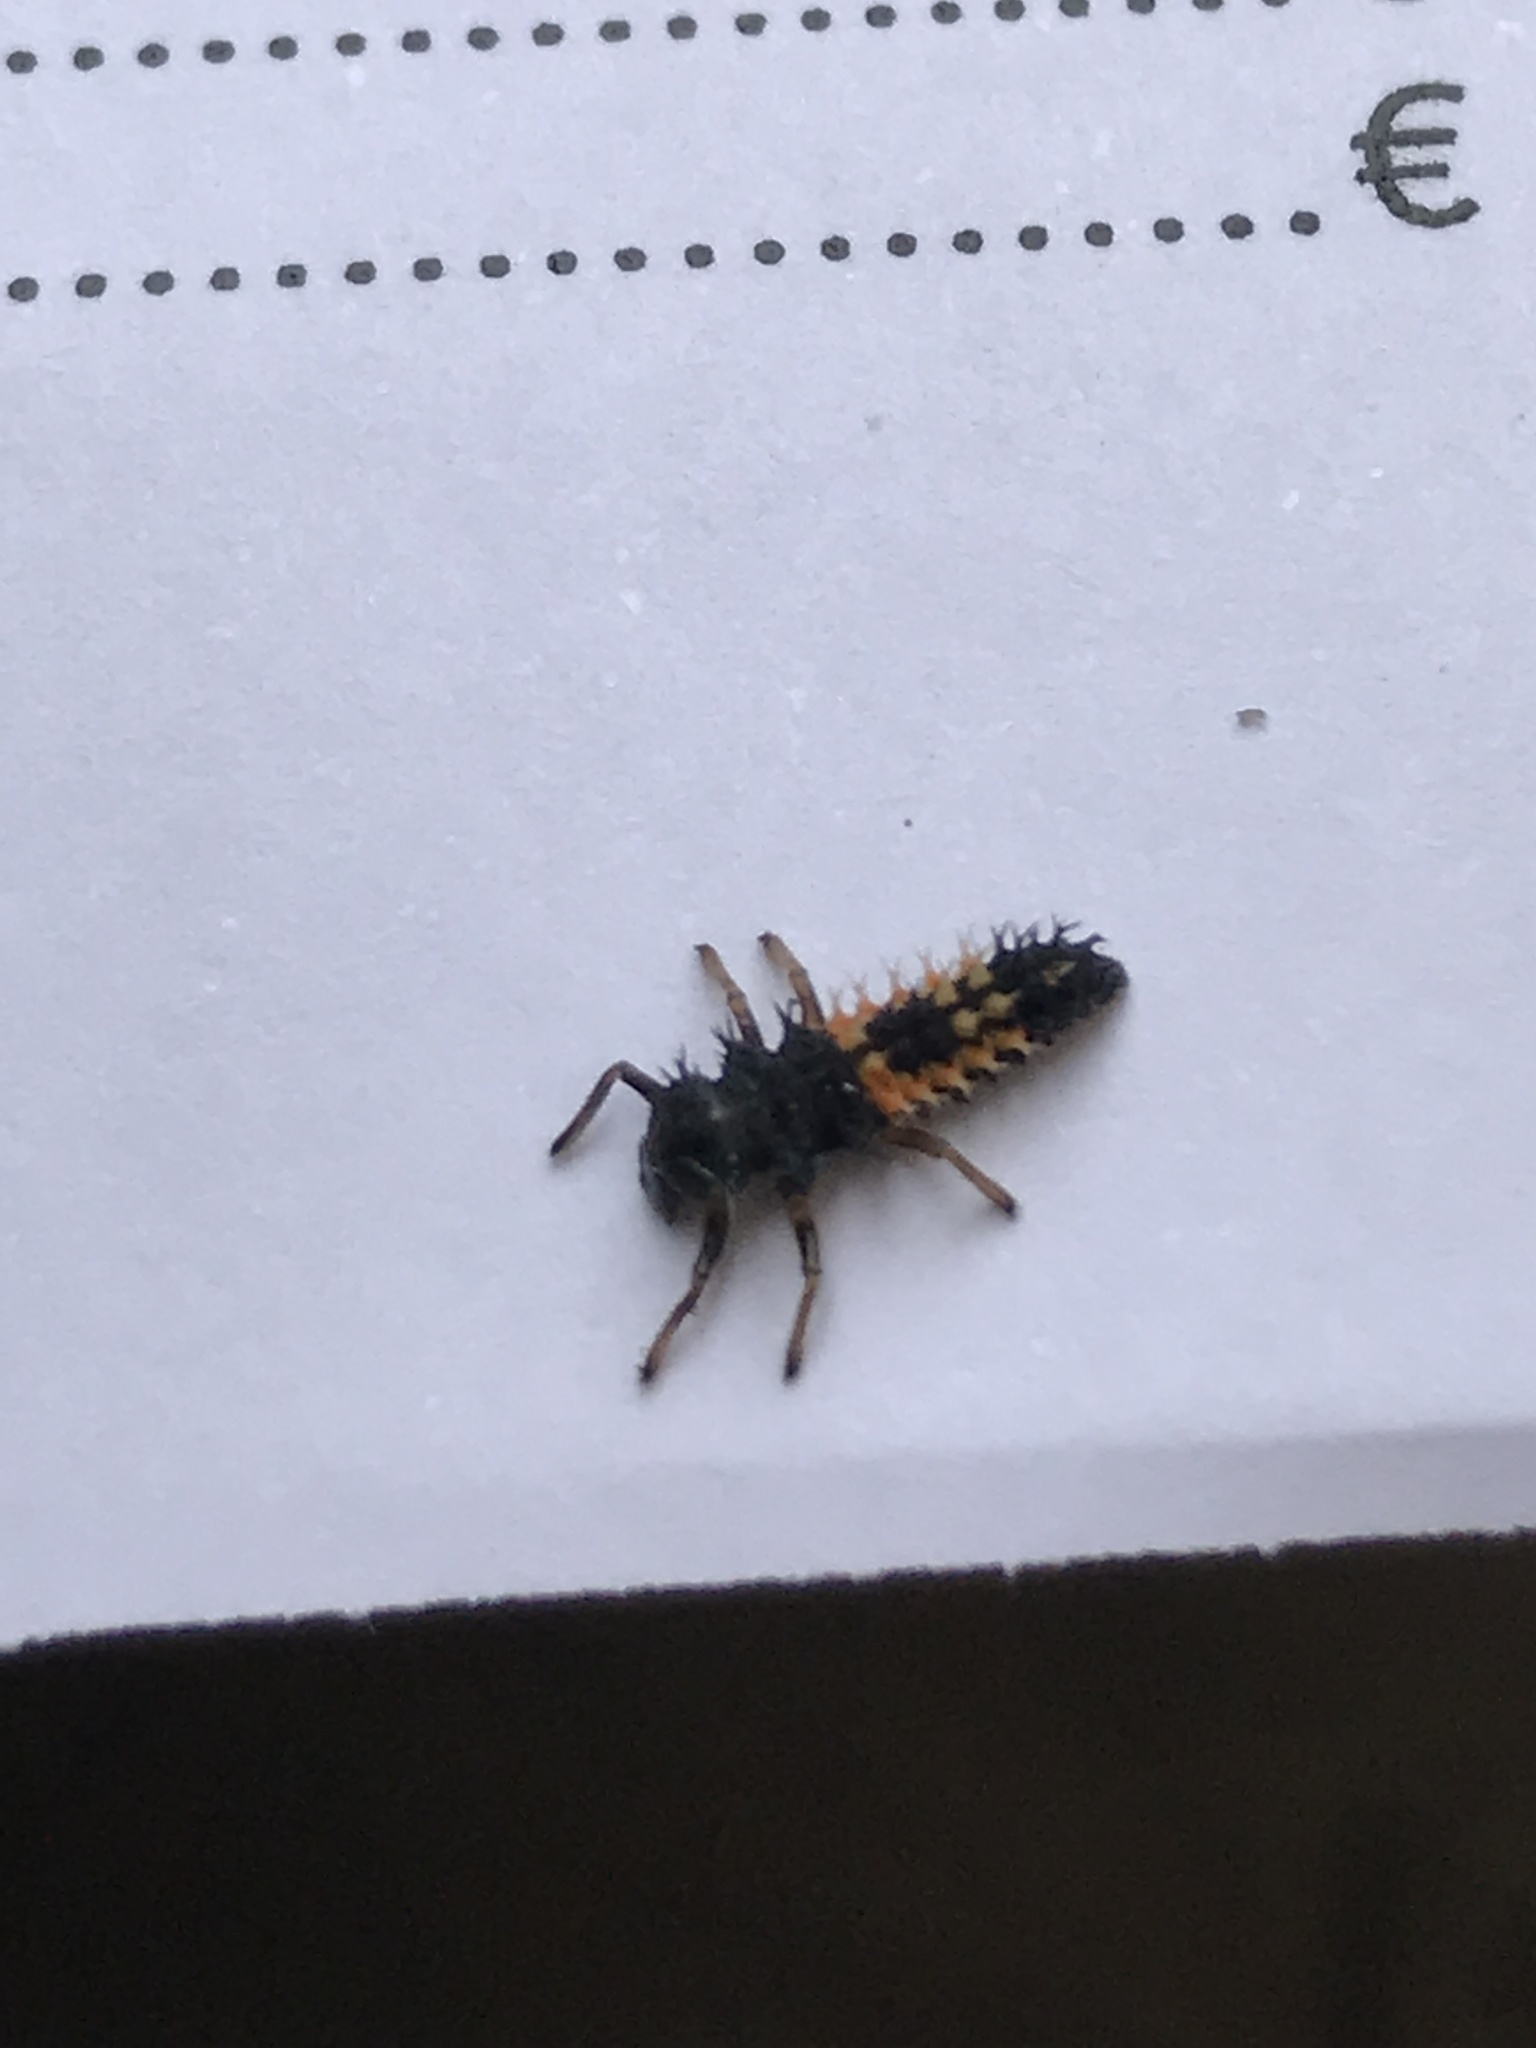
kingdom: Animalia
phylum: Arthropoda
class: Insecta
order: Coleoptera
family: Coccinellidae
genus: Harmonia
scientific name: Harmonia axyridis
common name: Harlequin ladybird
